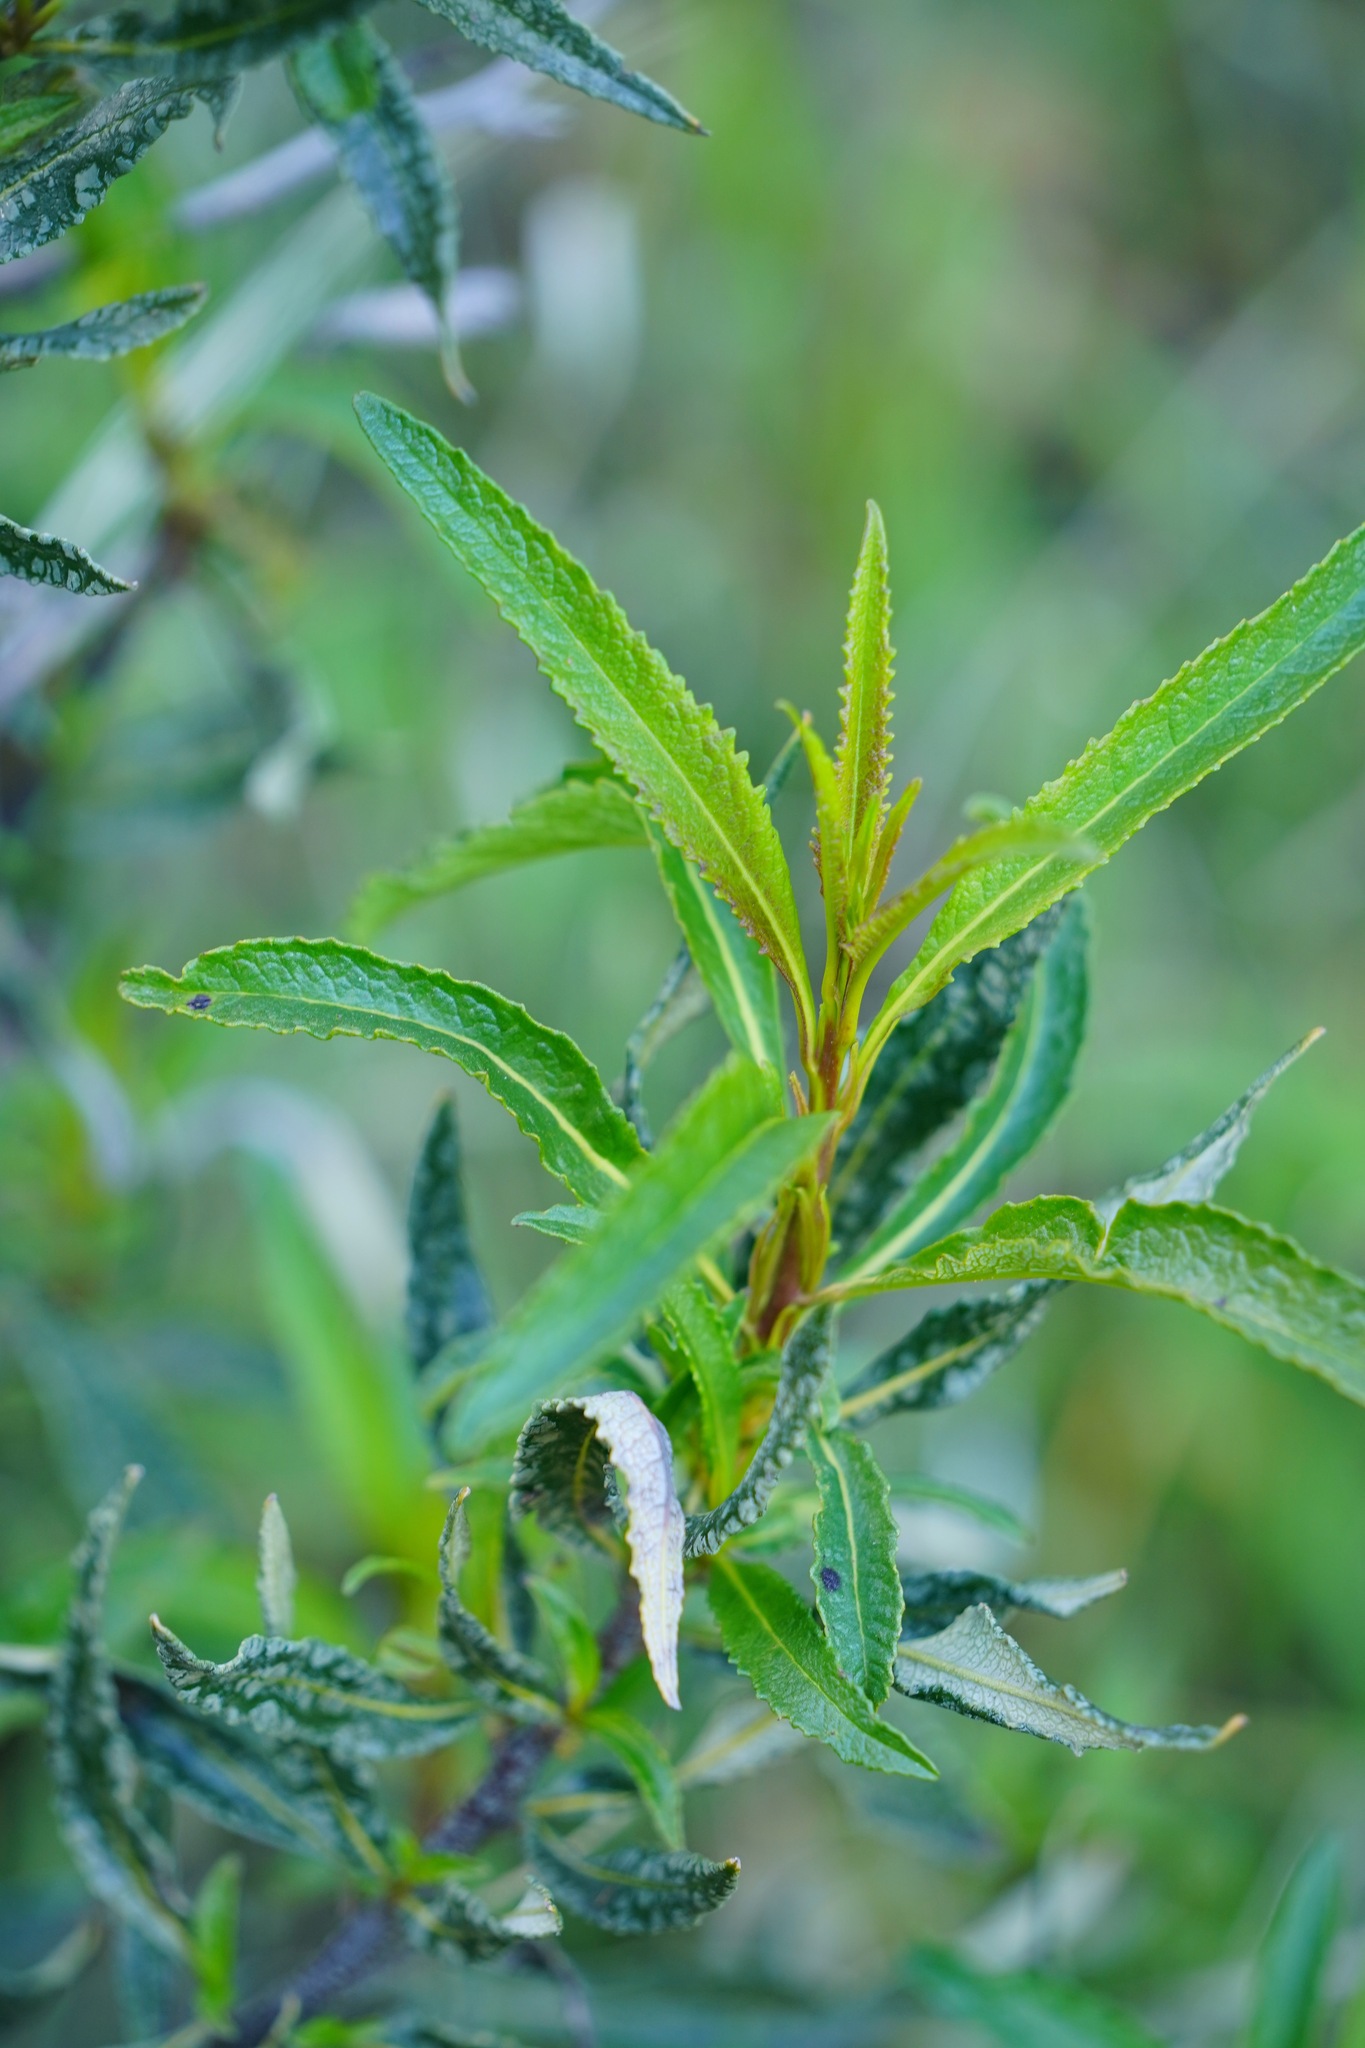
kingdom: Plantae
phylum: Tracheophyta
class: Magnoliopsida
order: Boraginales
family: Namaceae
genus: Eriodictyon
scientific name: Eriodictyon californicum
